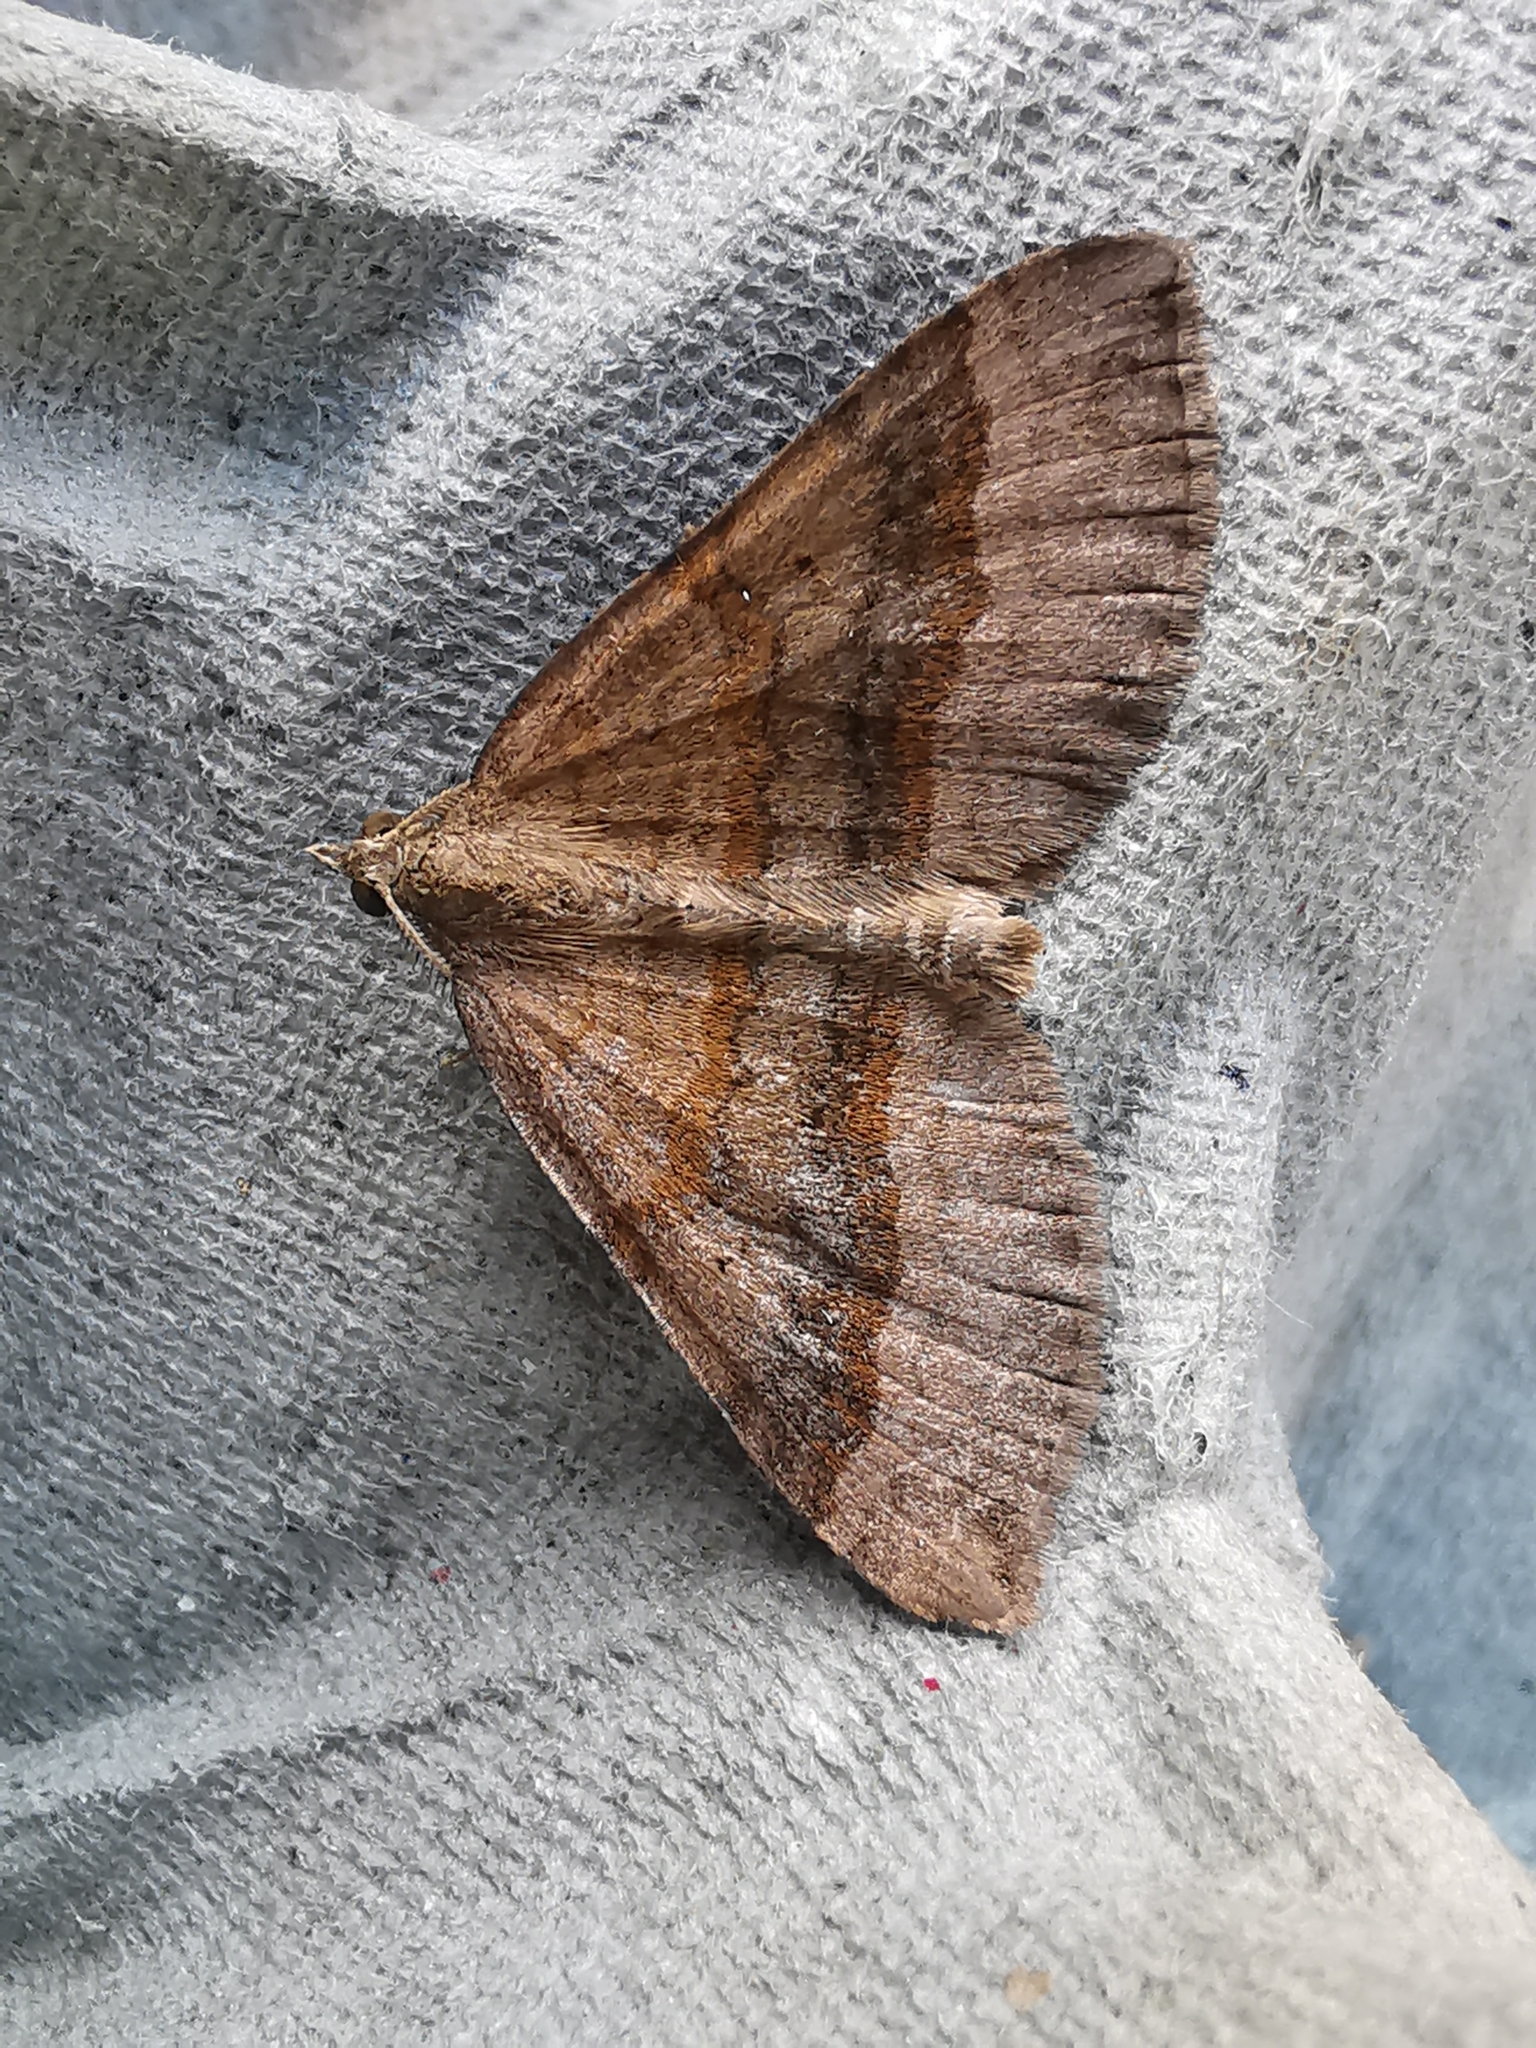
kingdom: Animalia
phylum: Arthropoda
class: Insecta
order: Lepidoptera
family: Geometridae
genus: Scotopteryx
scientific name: Scotopteryx chenopodiata
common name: Shaded broad-bar
